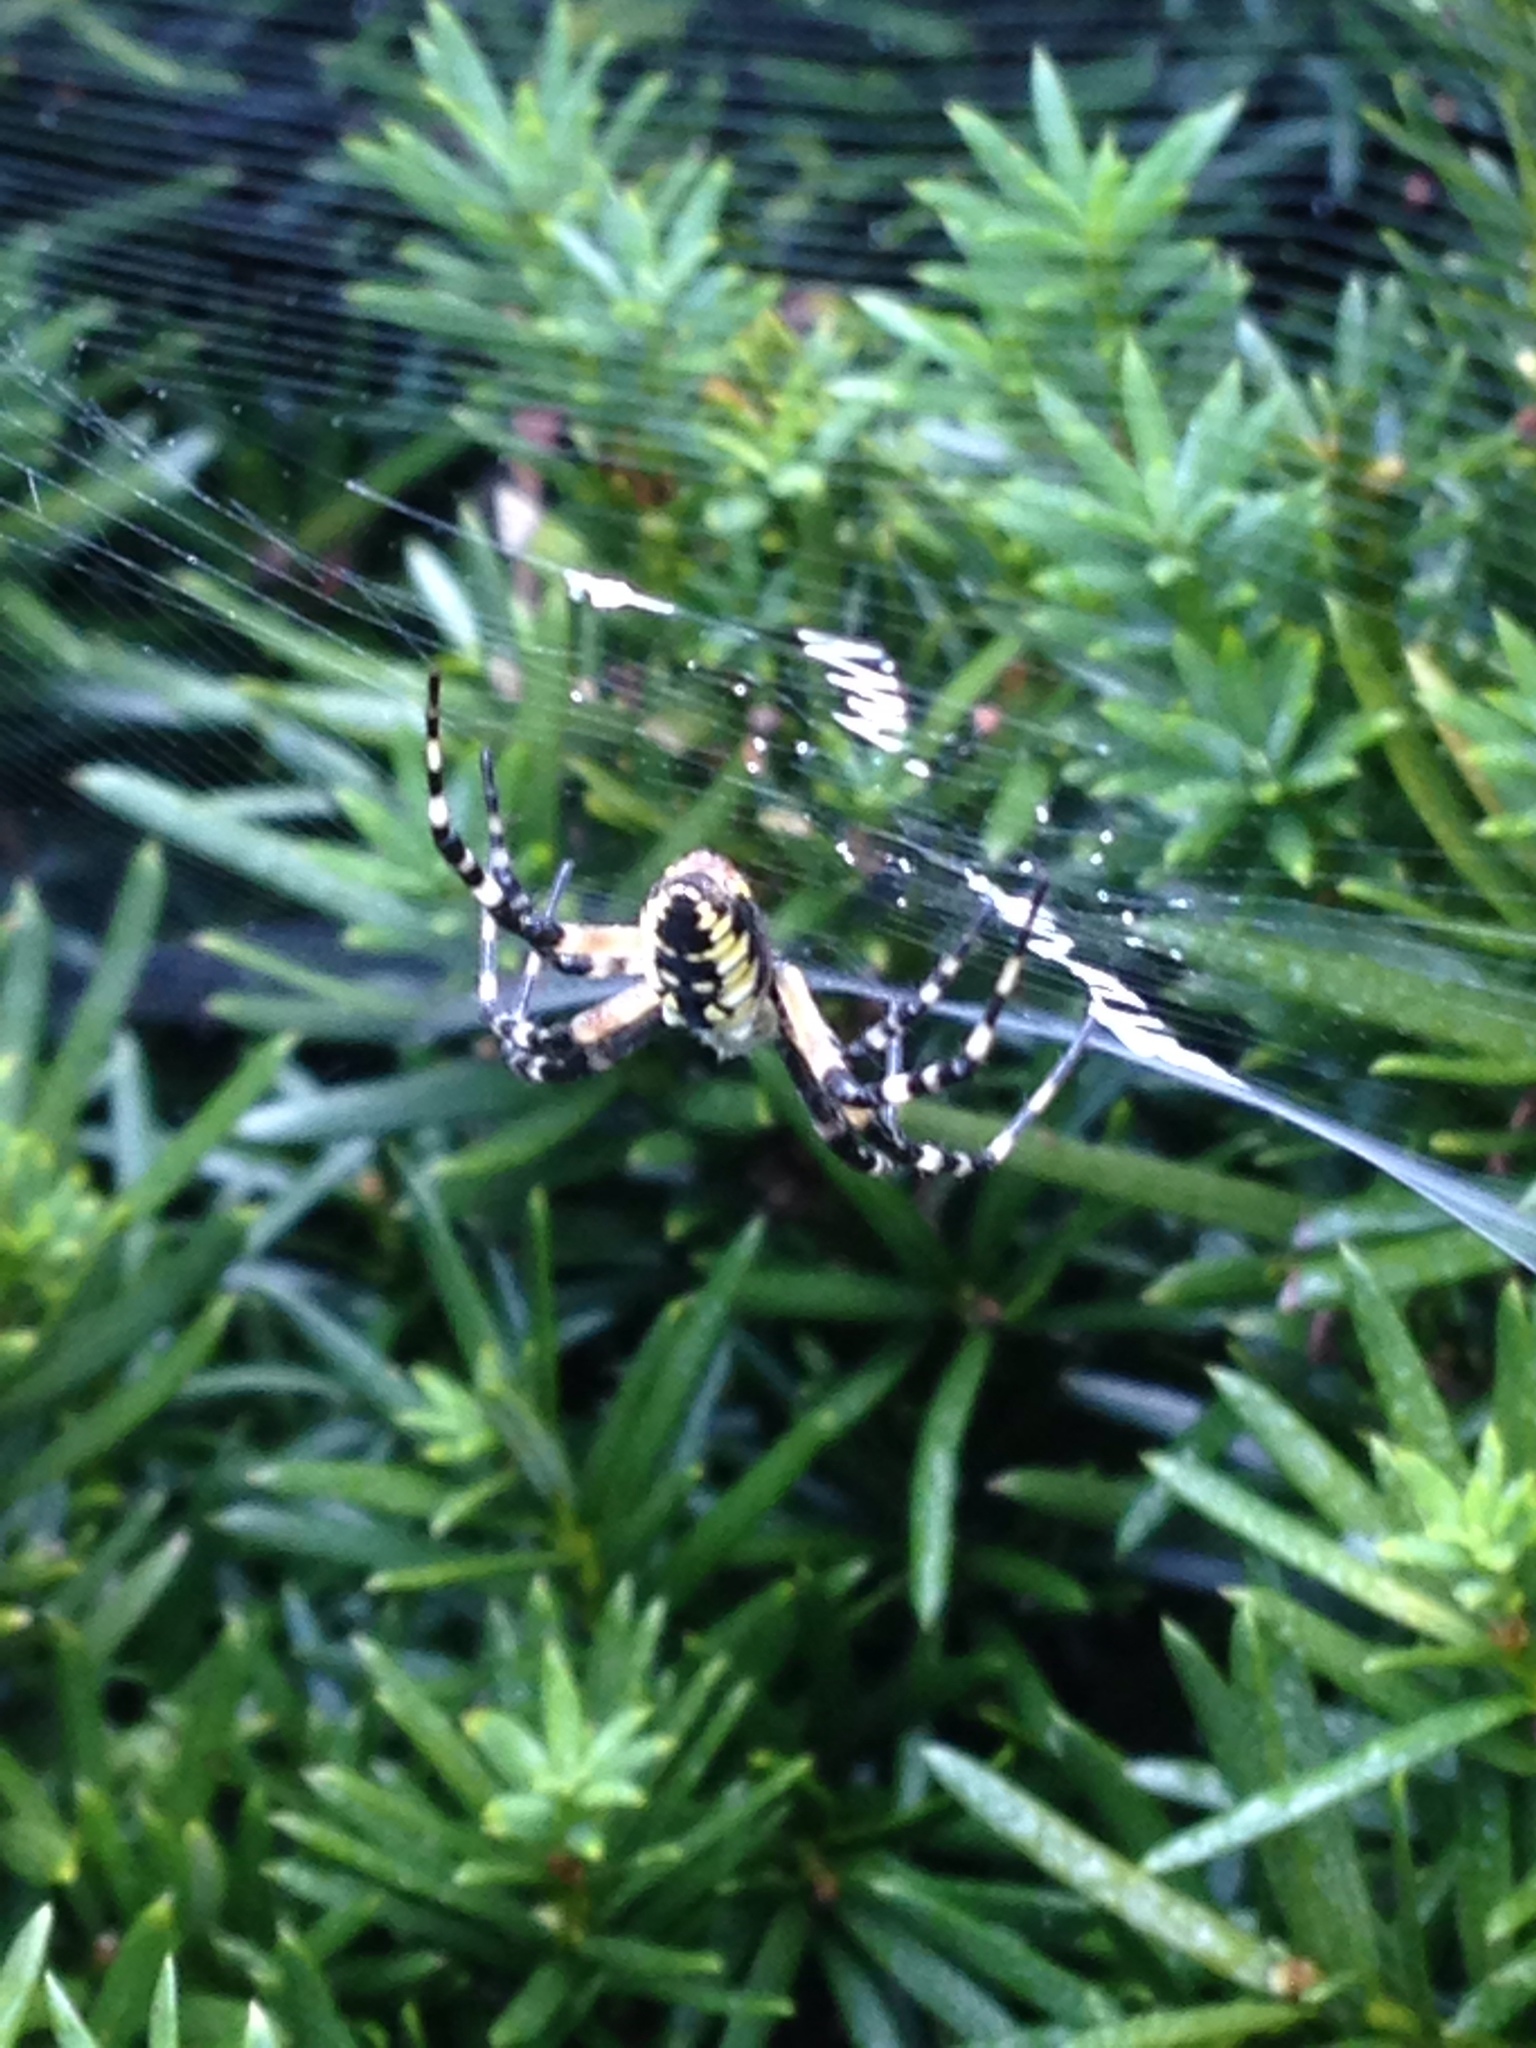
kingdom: Animalia
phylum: Arthropoda
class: Arachnida
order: Araneae
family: Araneidae
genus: Argiope
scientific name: Argiope aurantia
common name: Orb weavers
